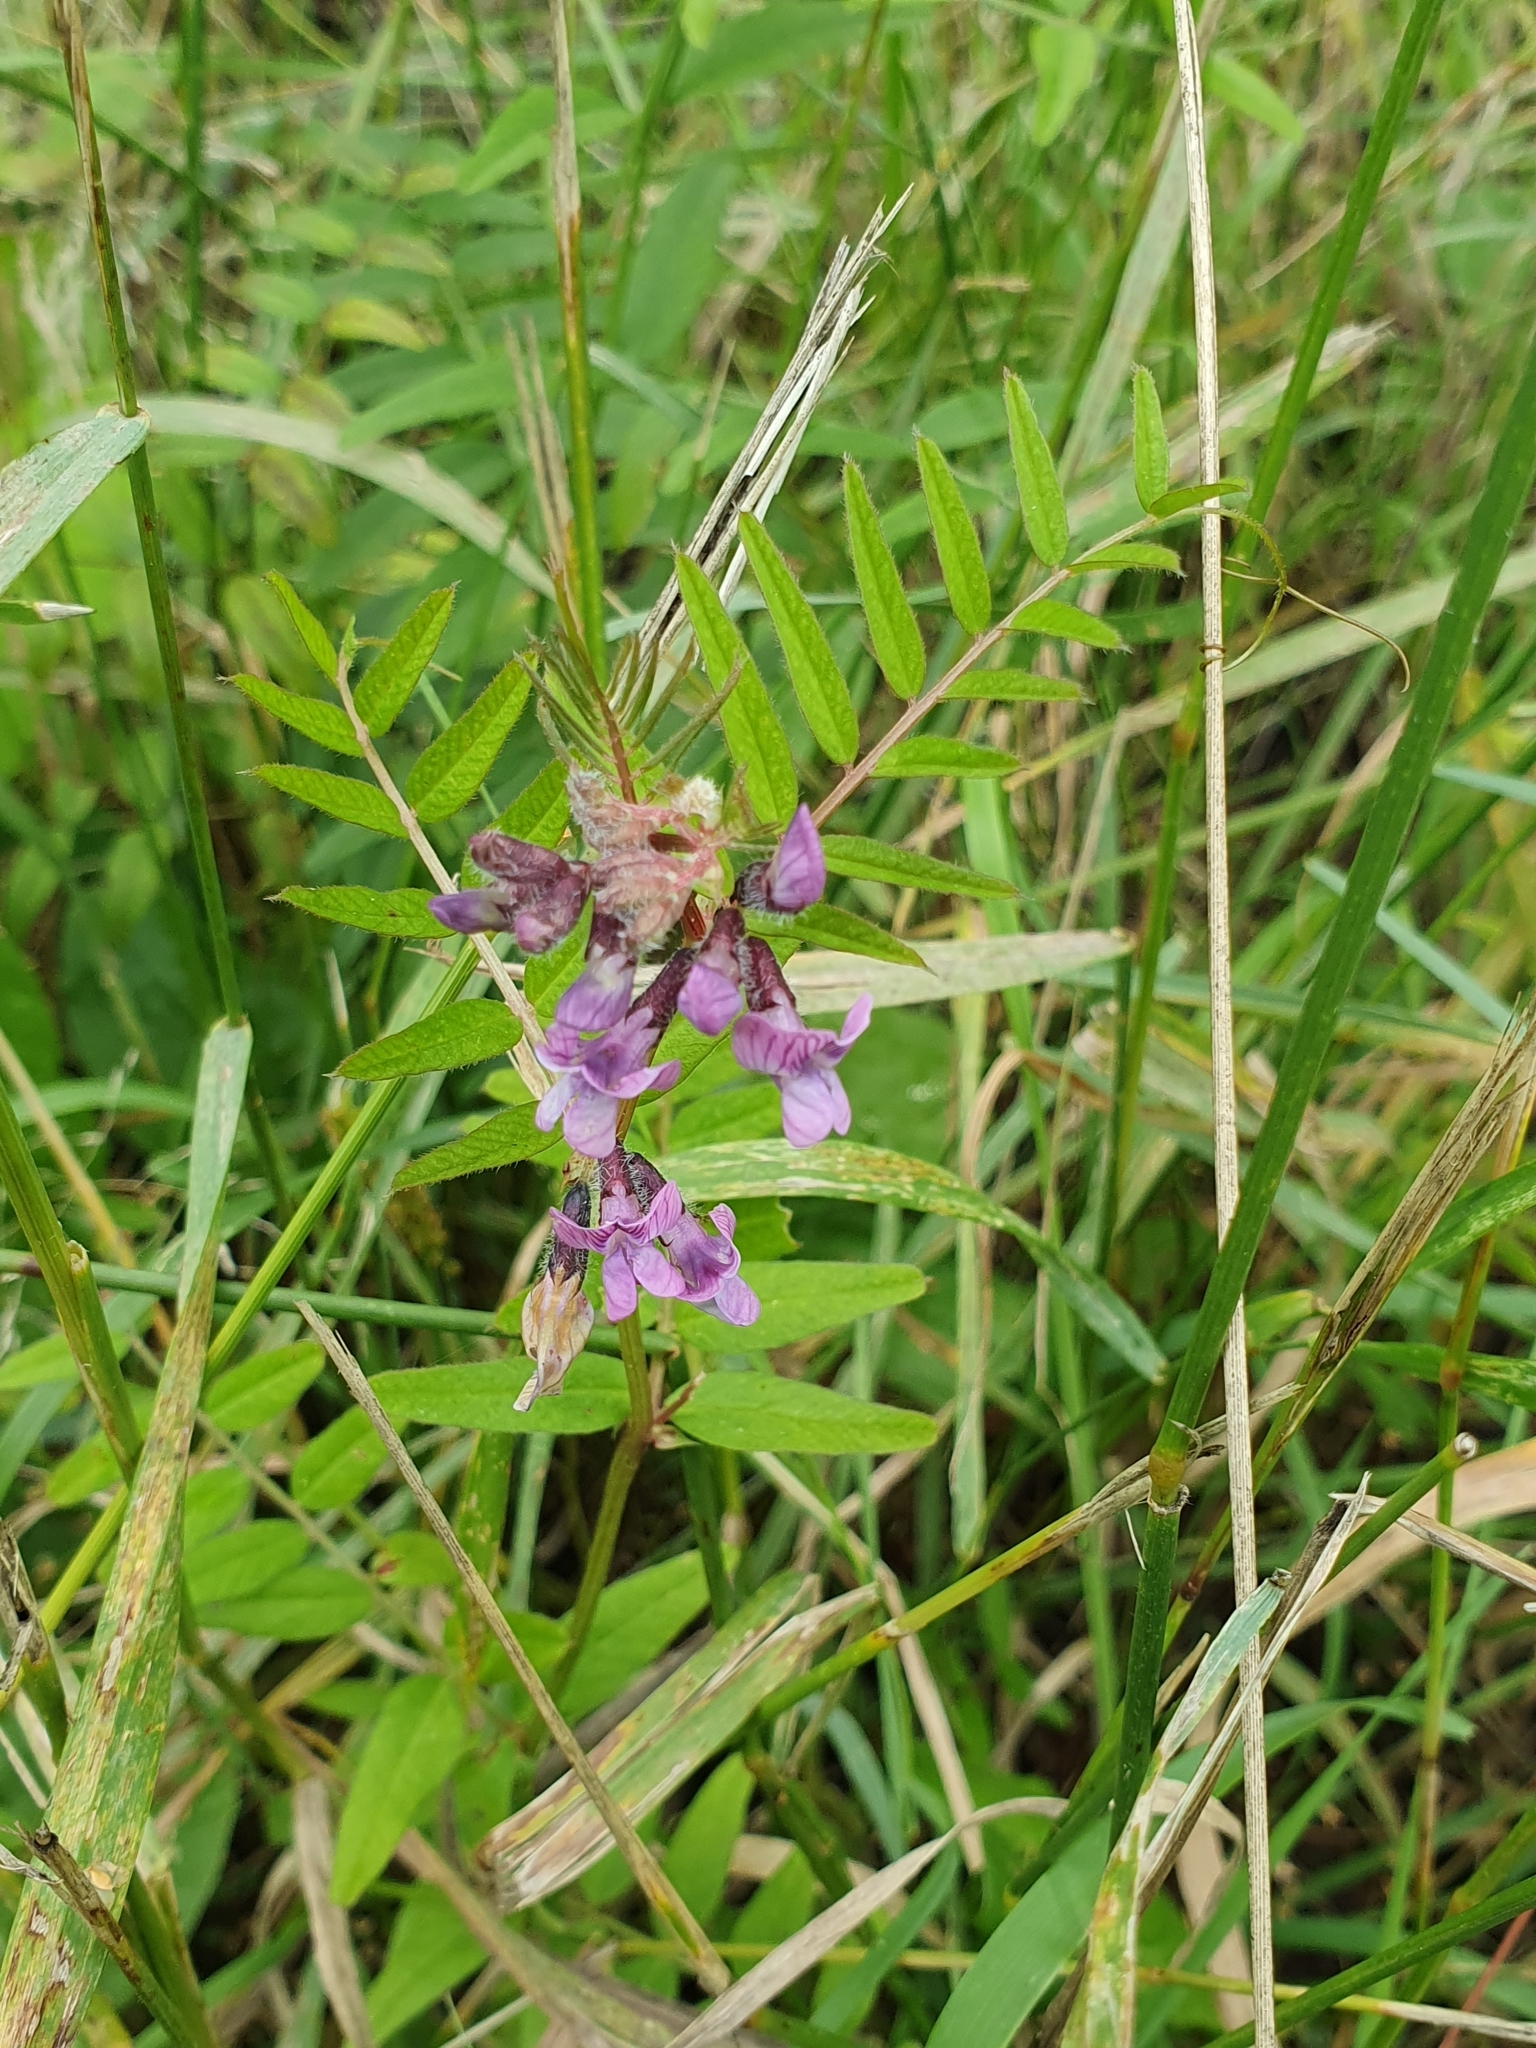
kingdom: Plantae
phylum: Tracheophyta
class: Magnoliopsida
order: Fabales
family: Fabaceae
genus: Vicia
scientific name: Vicia sepium
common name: Bush vetch
